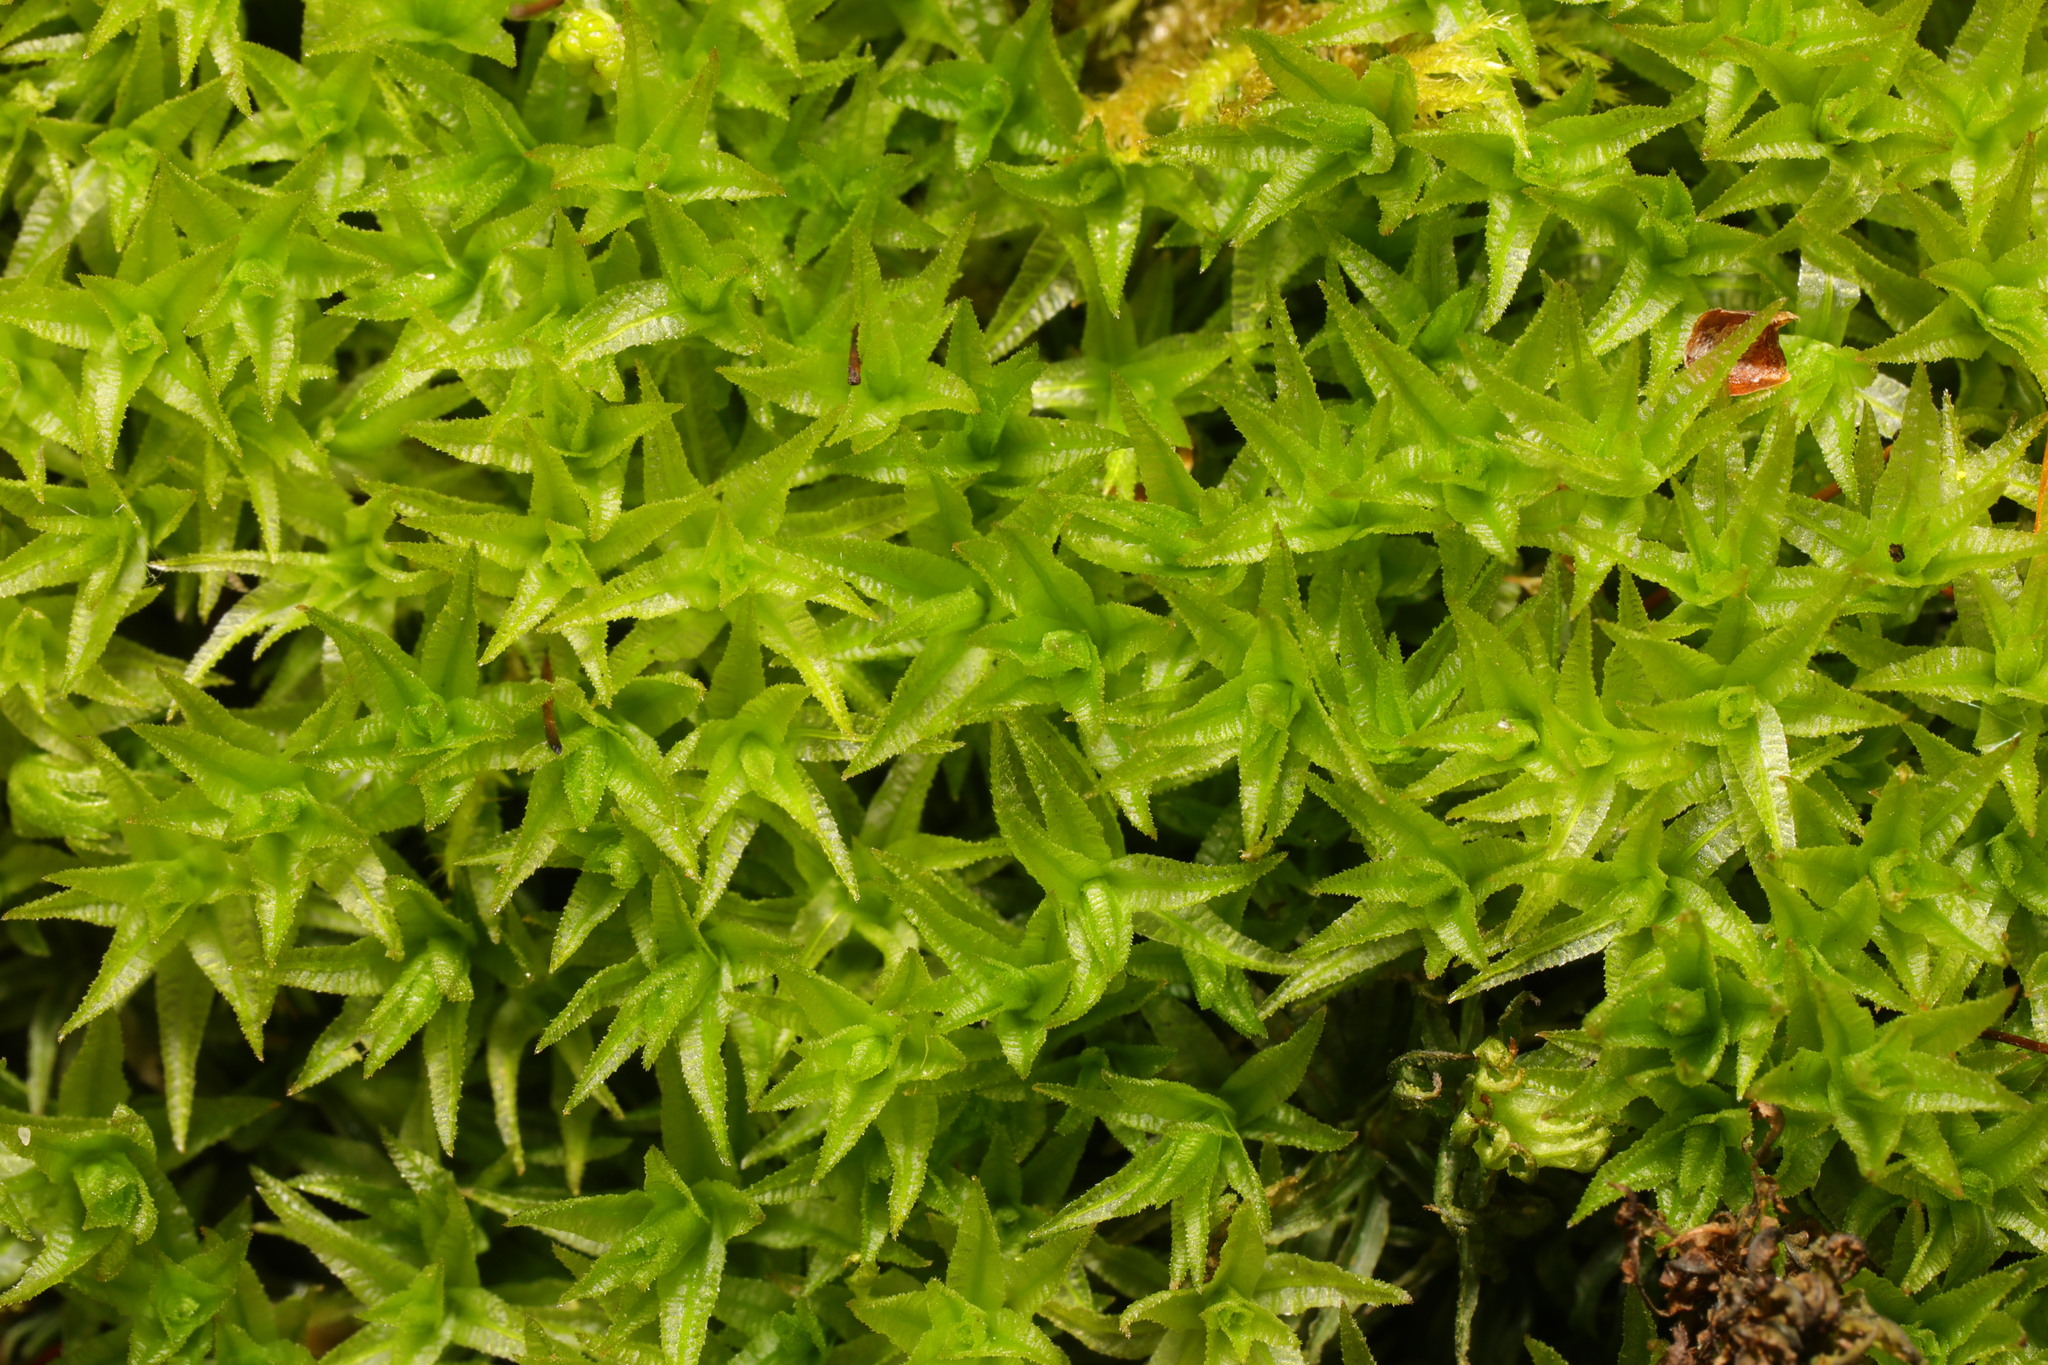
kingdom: Plantae
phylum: Bryophyta
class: Polytrichopsida
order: Polytrichales
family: Polytrichaceae
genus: Atrichum
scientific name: Atrichum undulatum
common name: Common smoothcap
